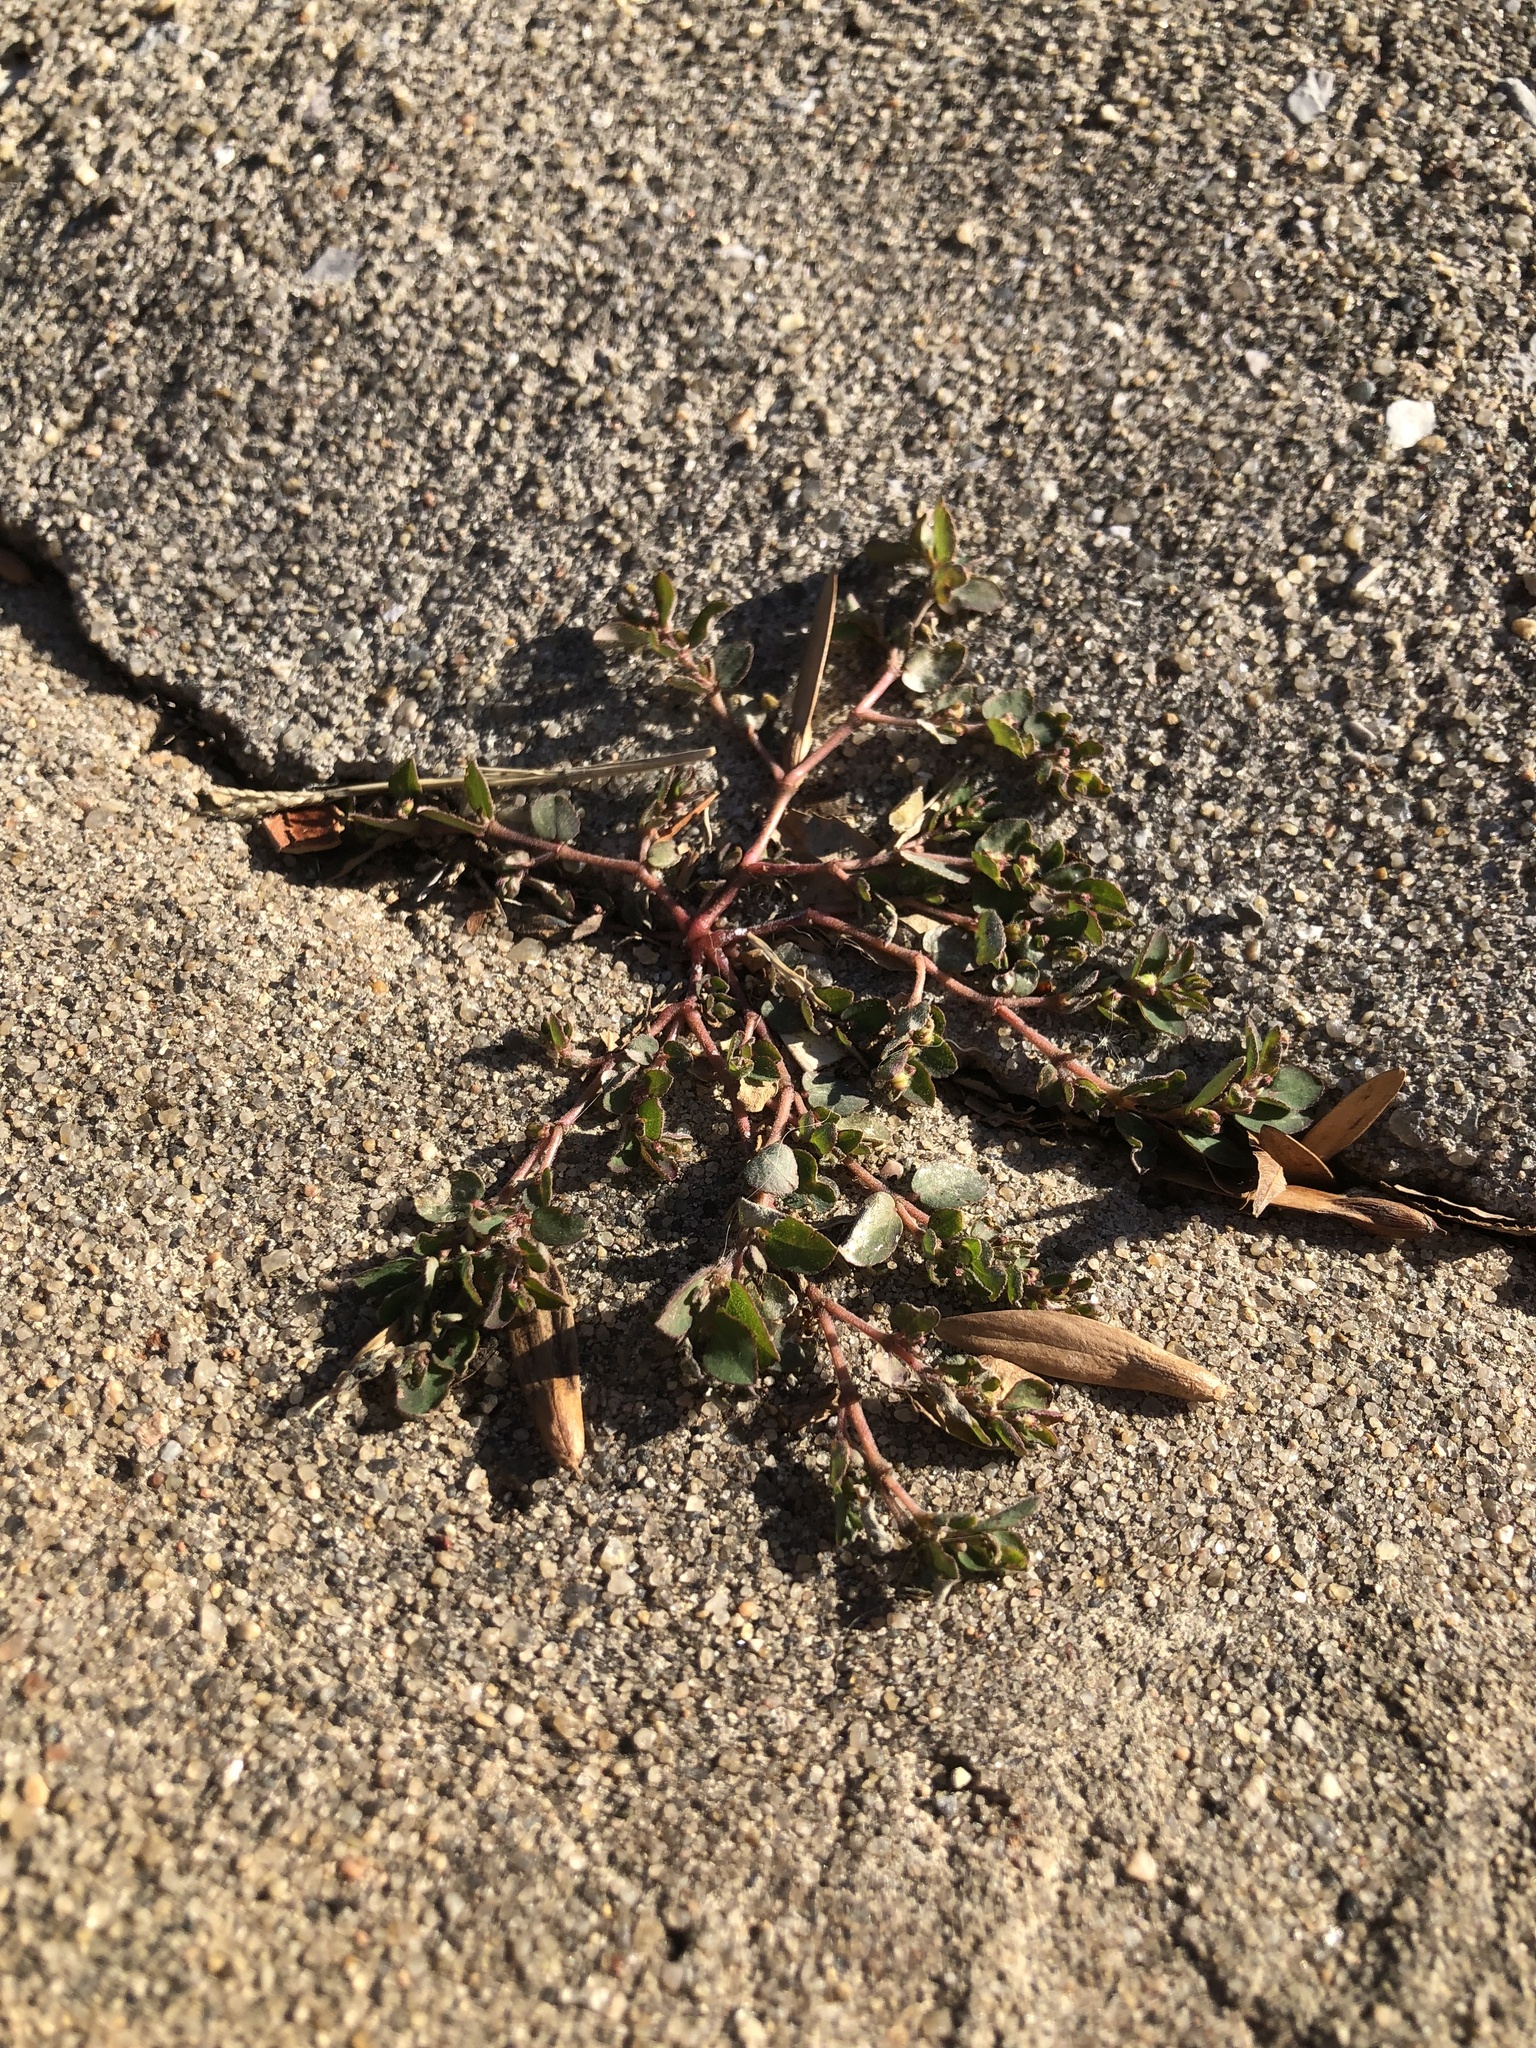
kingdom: Plantae
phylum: Tracheophyta
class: Magnoliopsida
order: Malpighiales
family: Euphorbiaceae
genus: Euphorbia
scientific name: Euphorbia prostrata
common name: Prostrate sandmat
